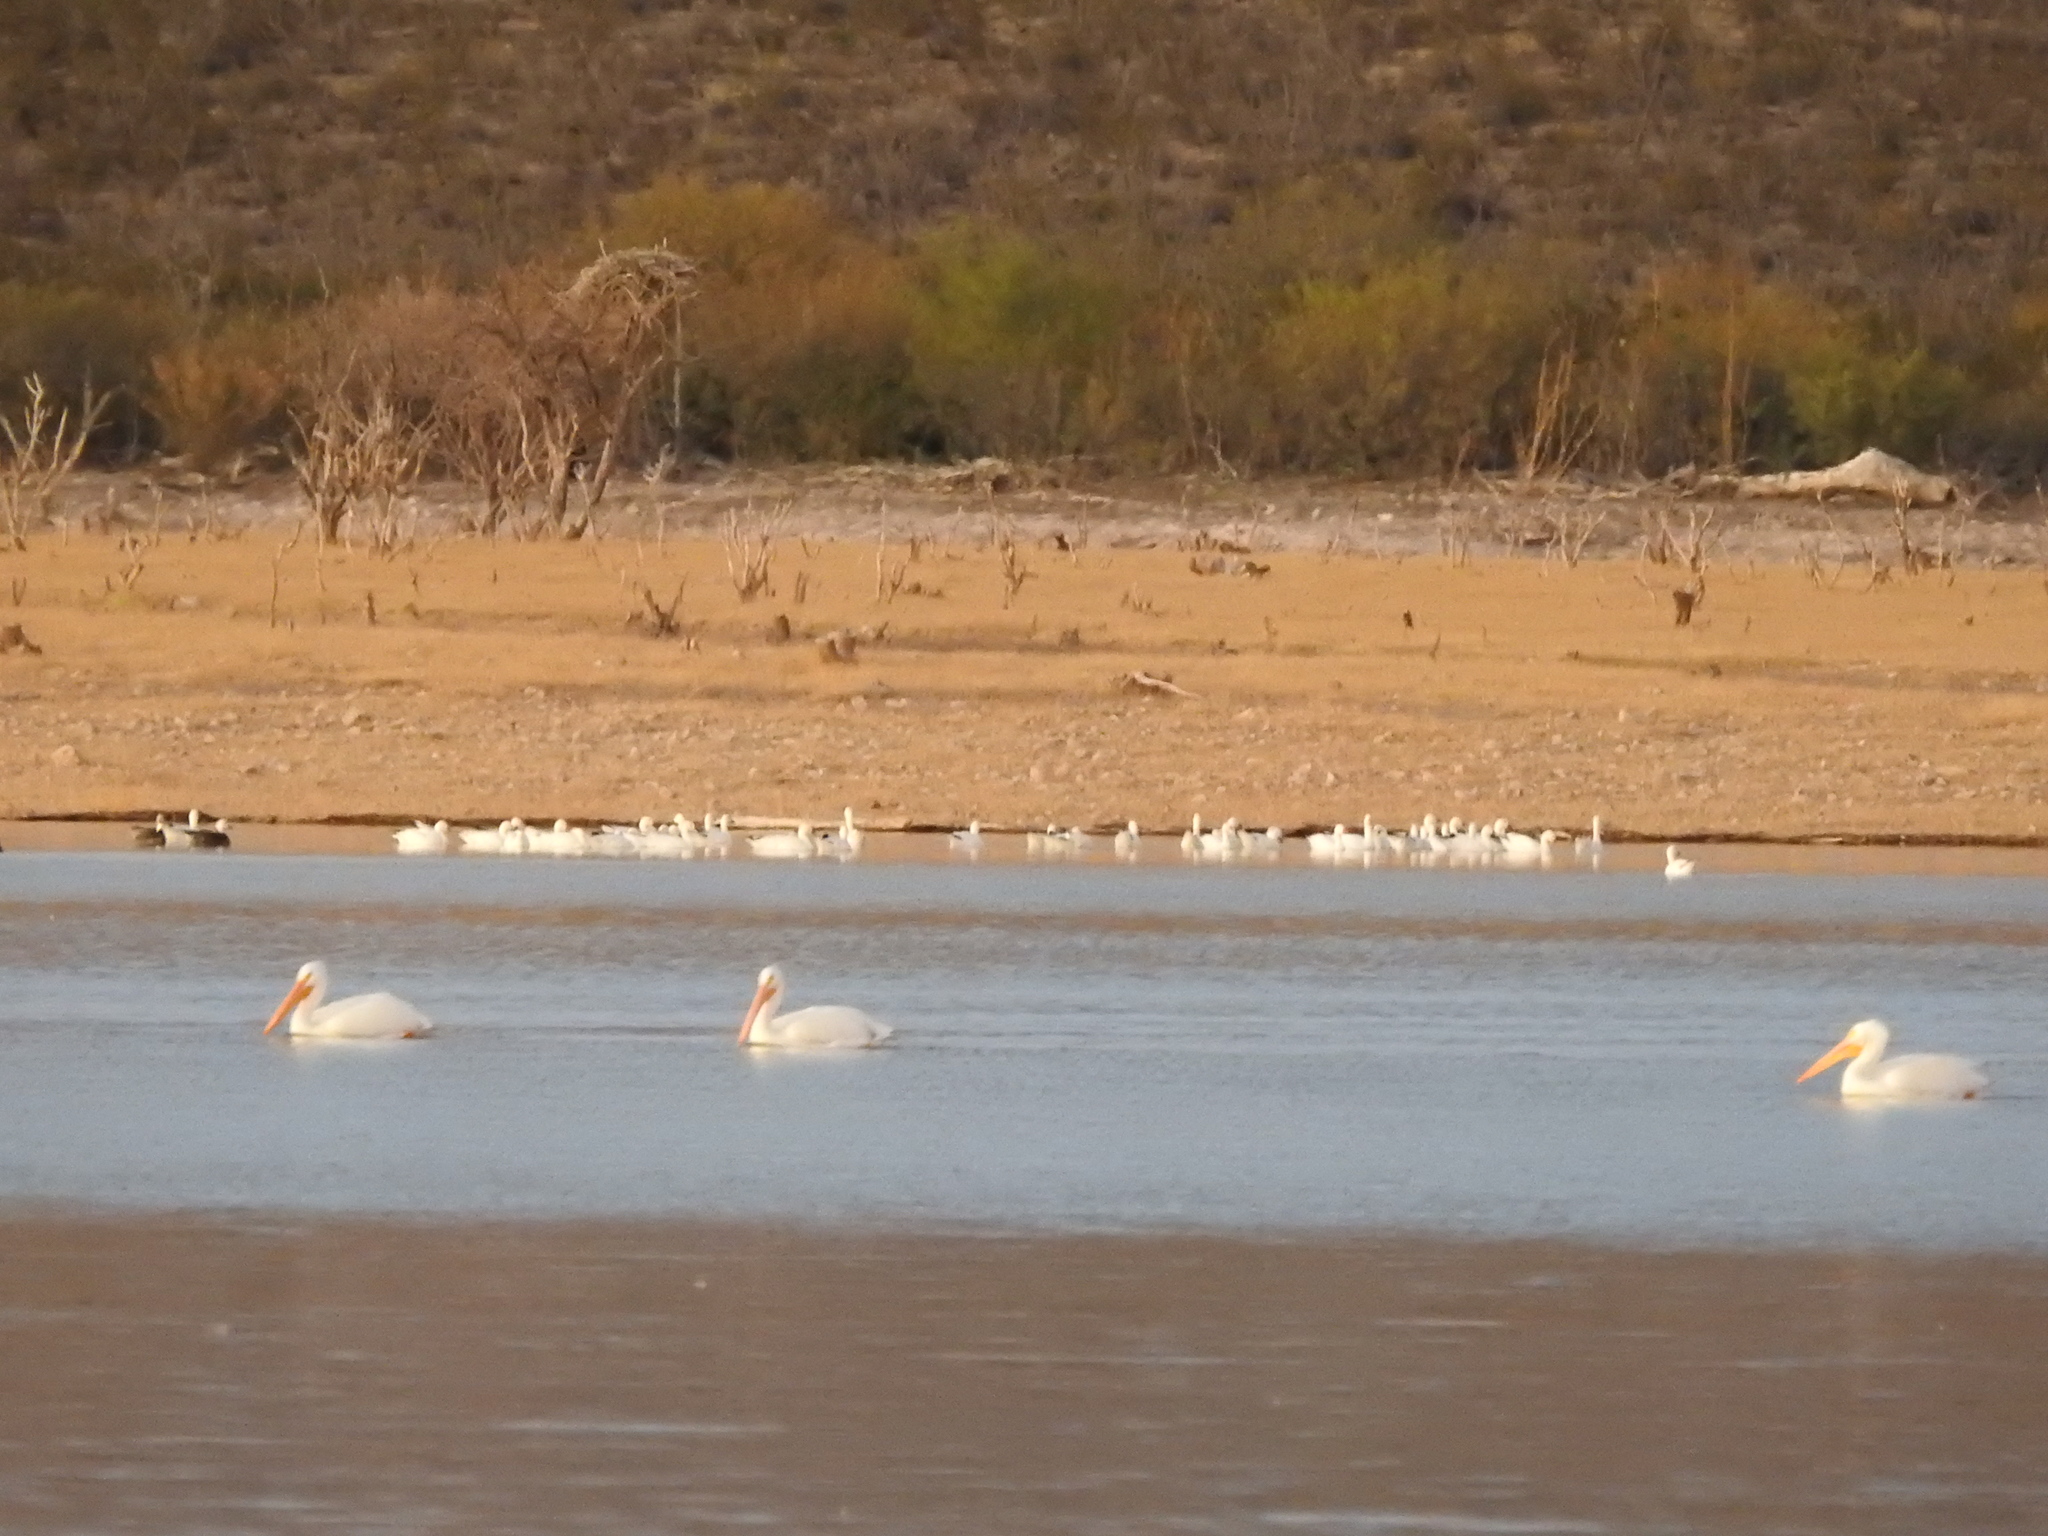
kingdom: Animalia
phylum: Chordata
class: Aves
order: Pelecaniformes
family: Pelecanidae
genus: Pelecanus
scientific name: Pelecanus erythrorhynchos
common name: American white pelican
